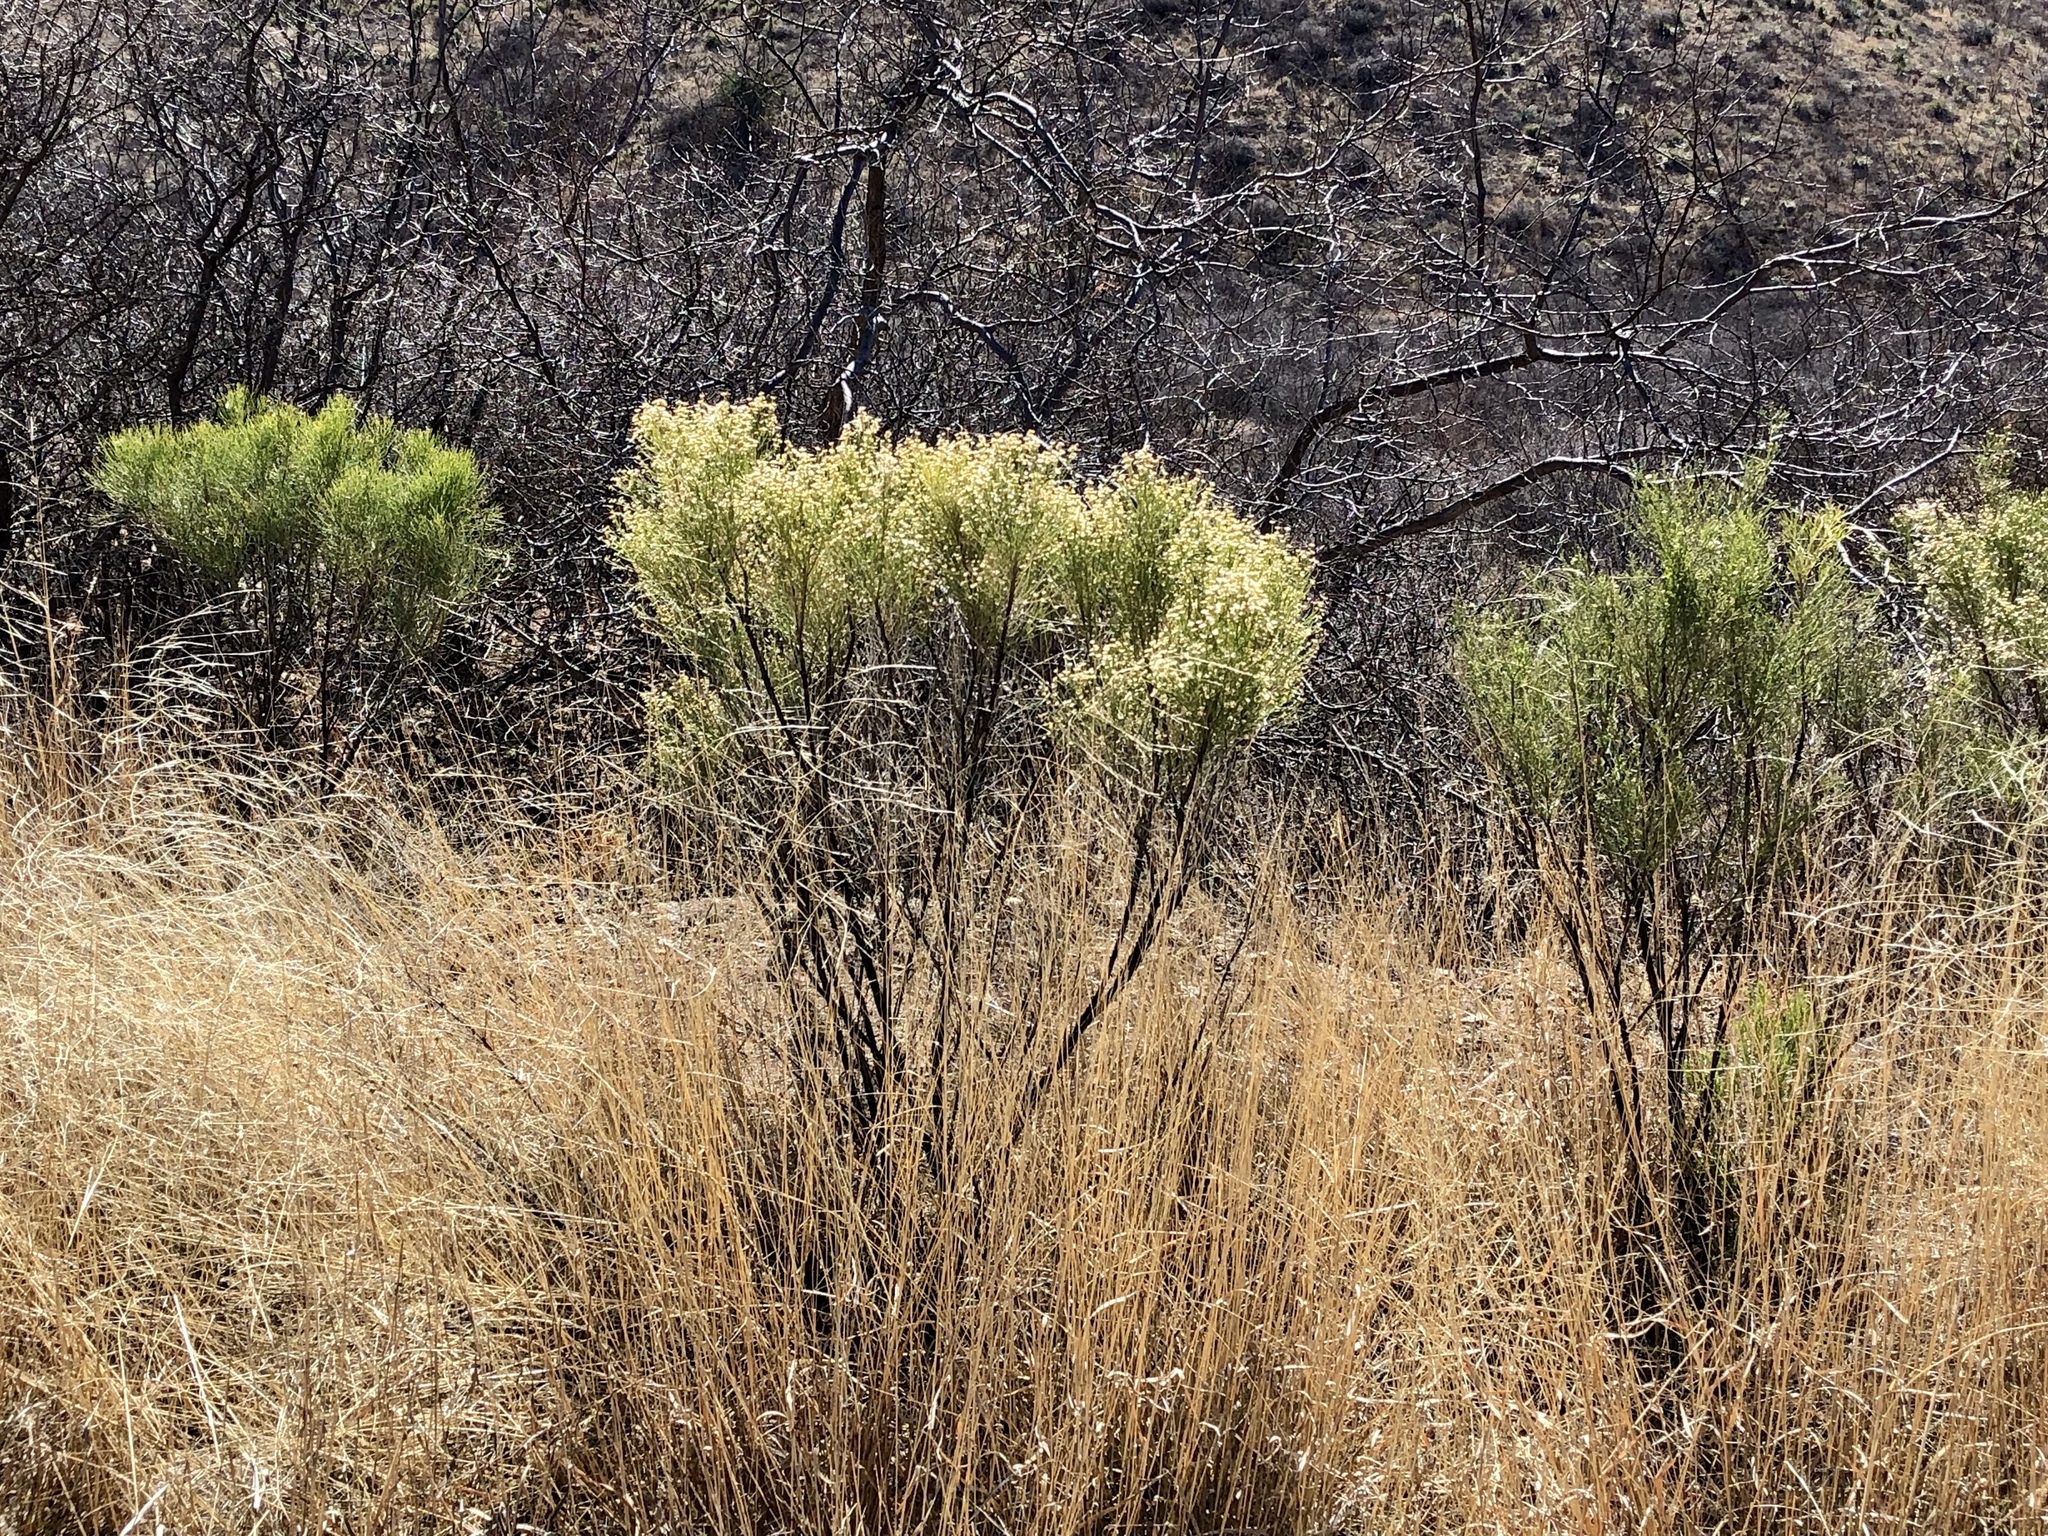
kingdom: Plantae
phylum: Tracheophyta
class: Magnoliopsida
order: Asterales
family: Asteraceae
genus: Baccharis
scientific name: Baccharis sarothroides
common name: Desert-broom
